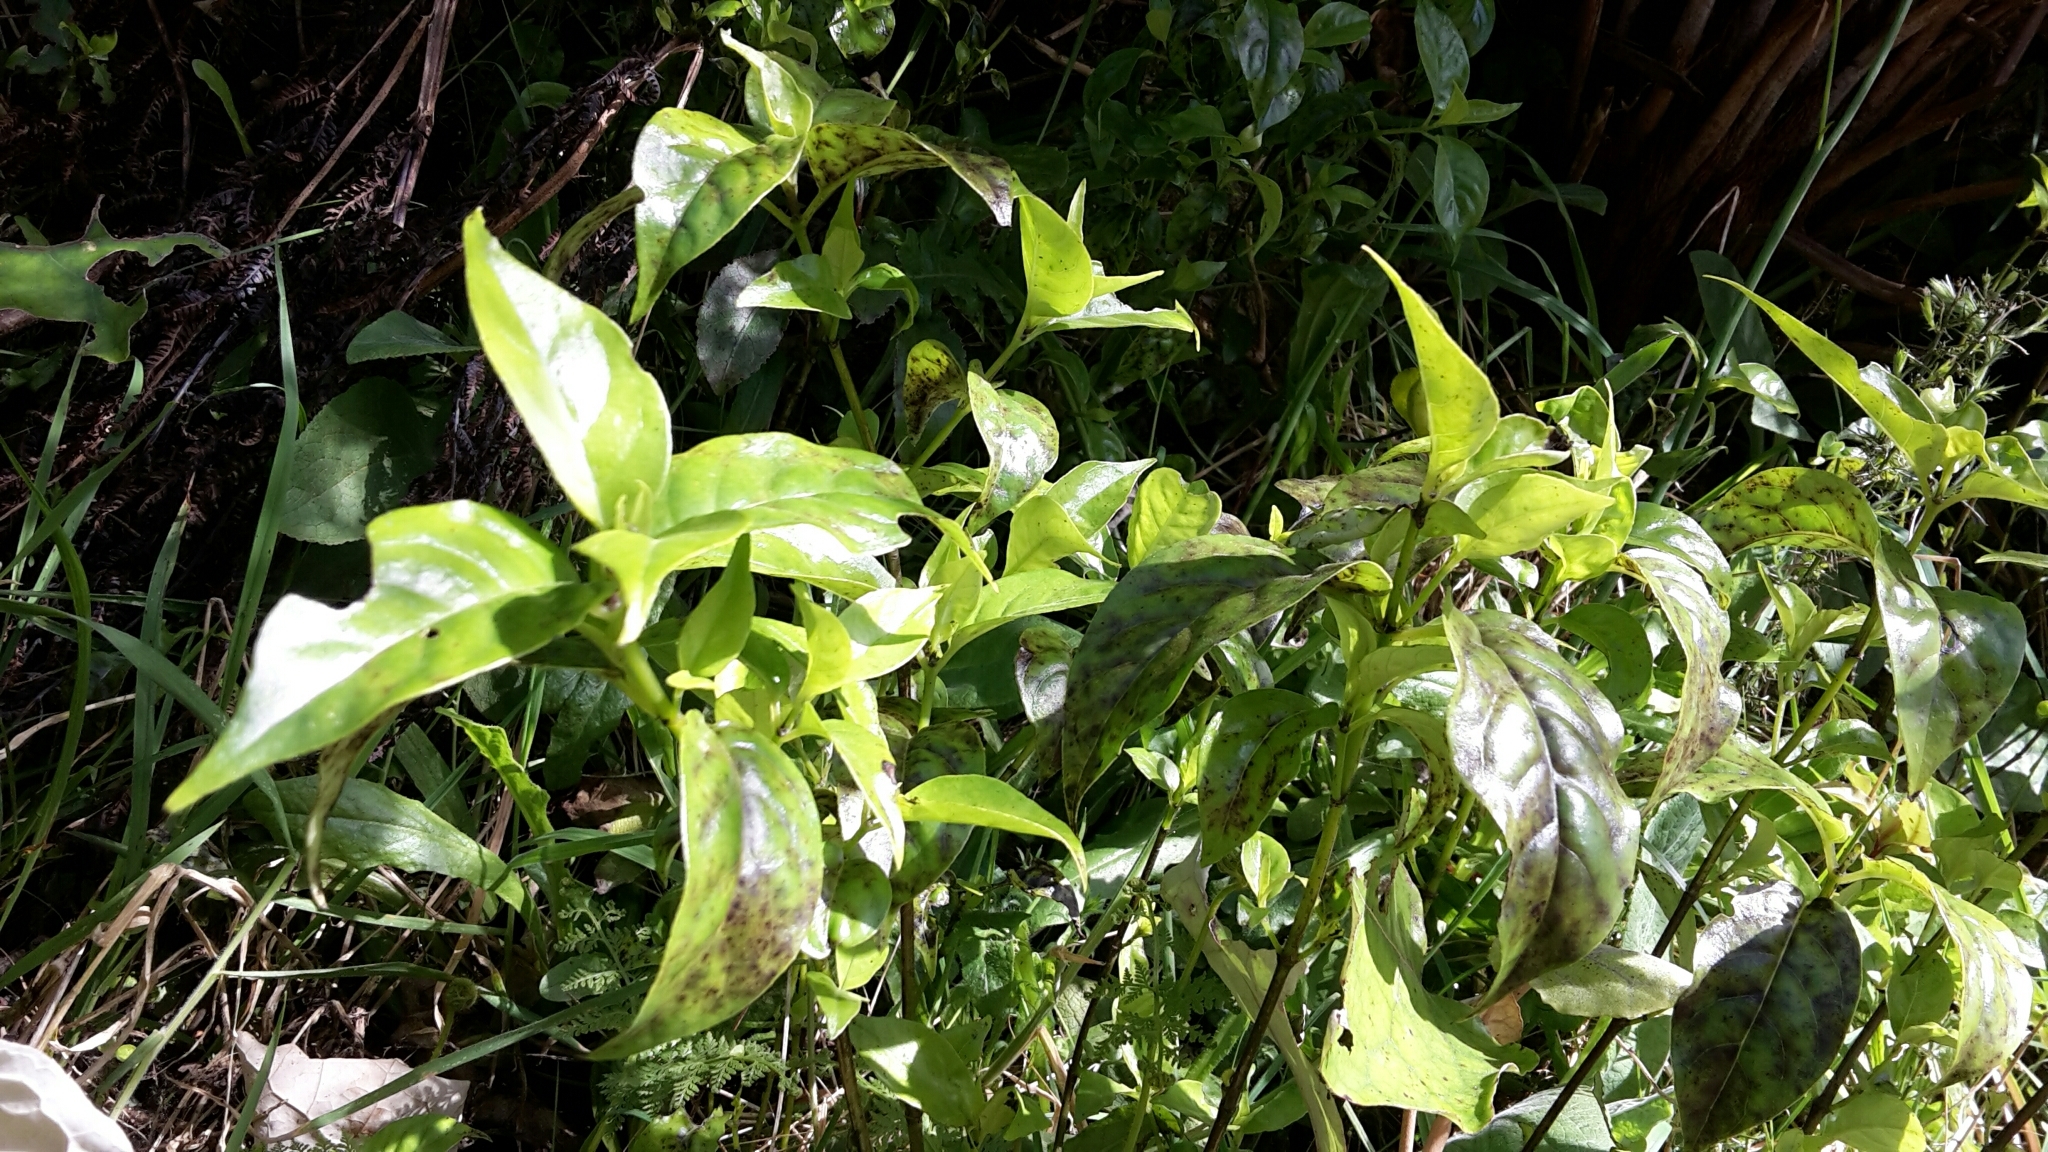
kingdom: Plantae
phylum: Tracheophyta
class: Magnoliopsida
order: Gentianales
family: Loganiaceae
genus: Geniostoma
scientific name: Geniostoma ligustrifolium
